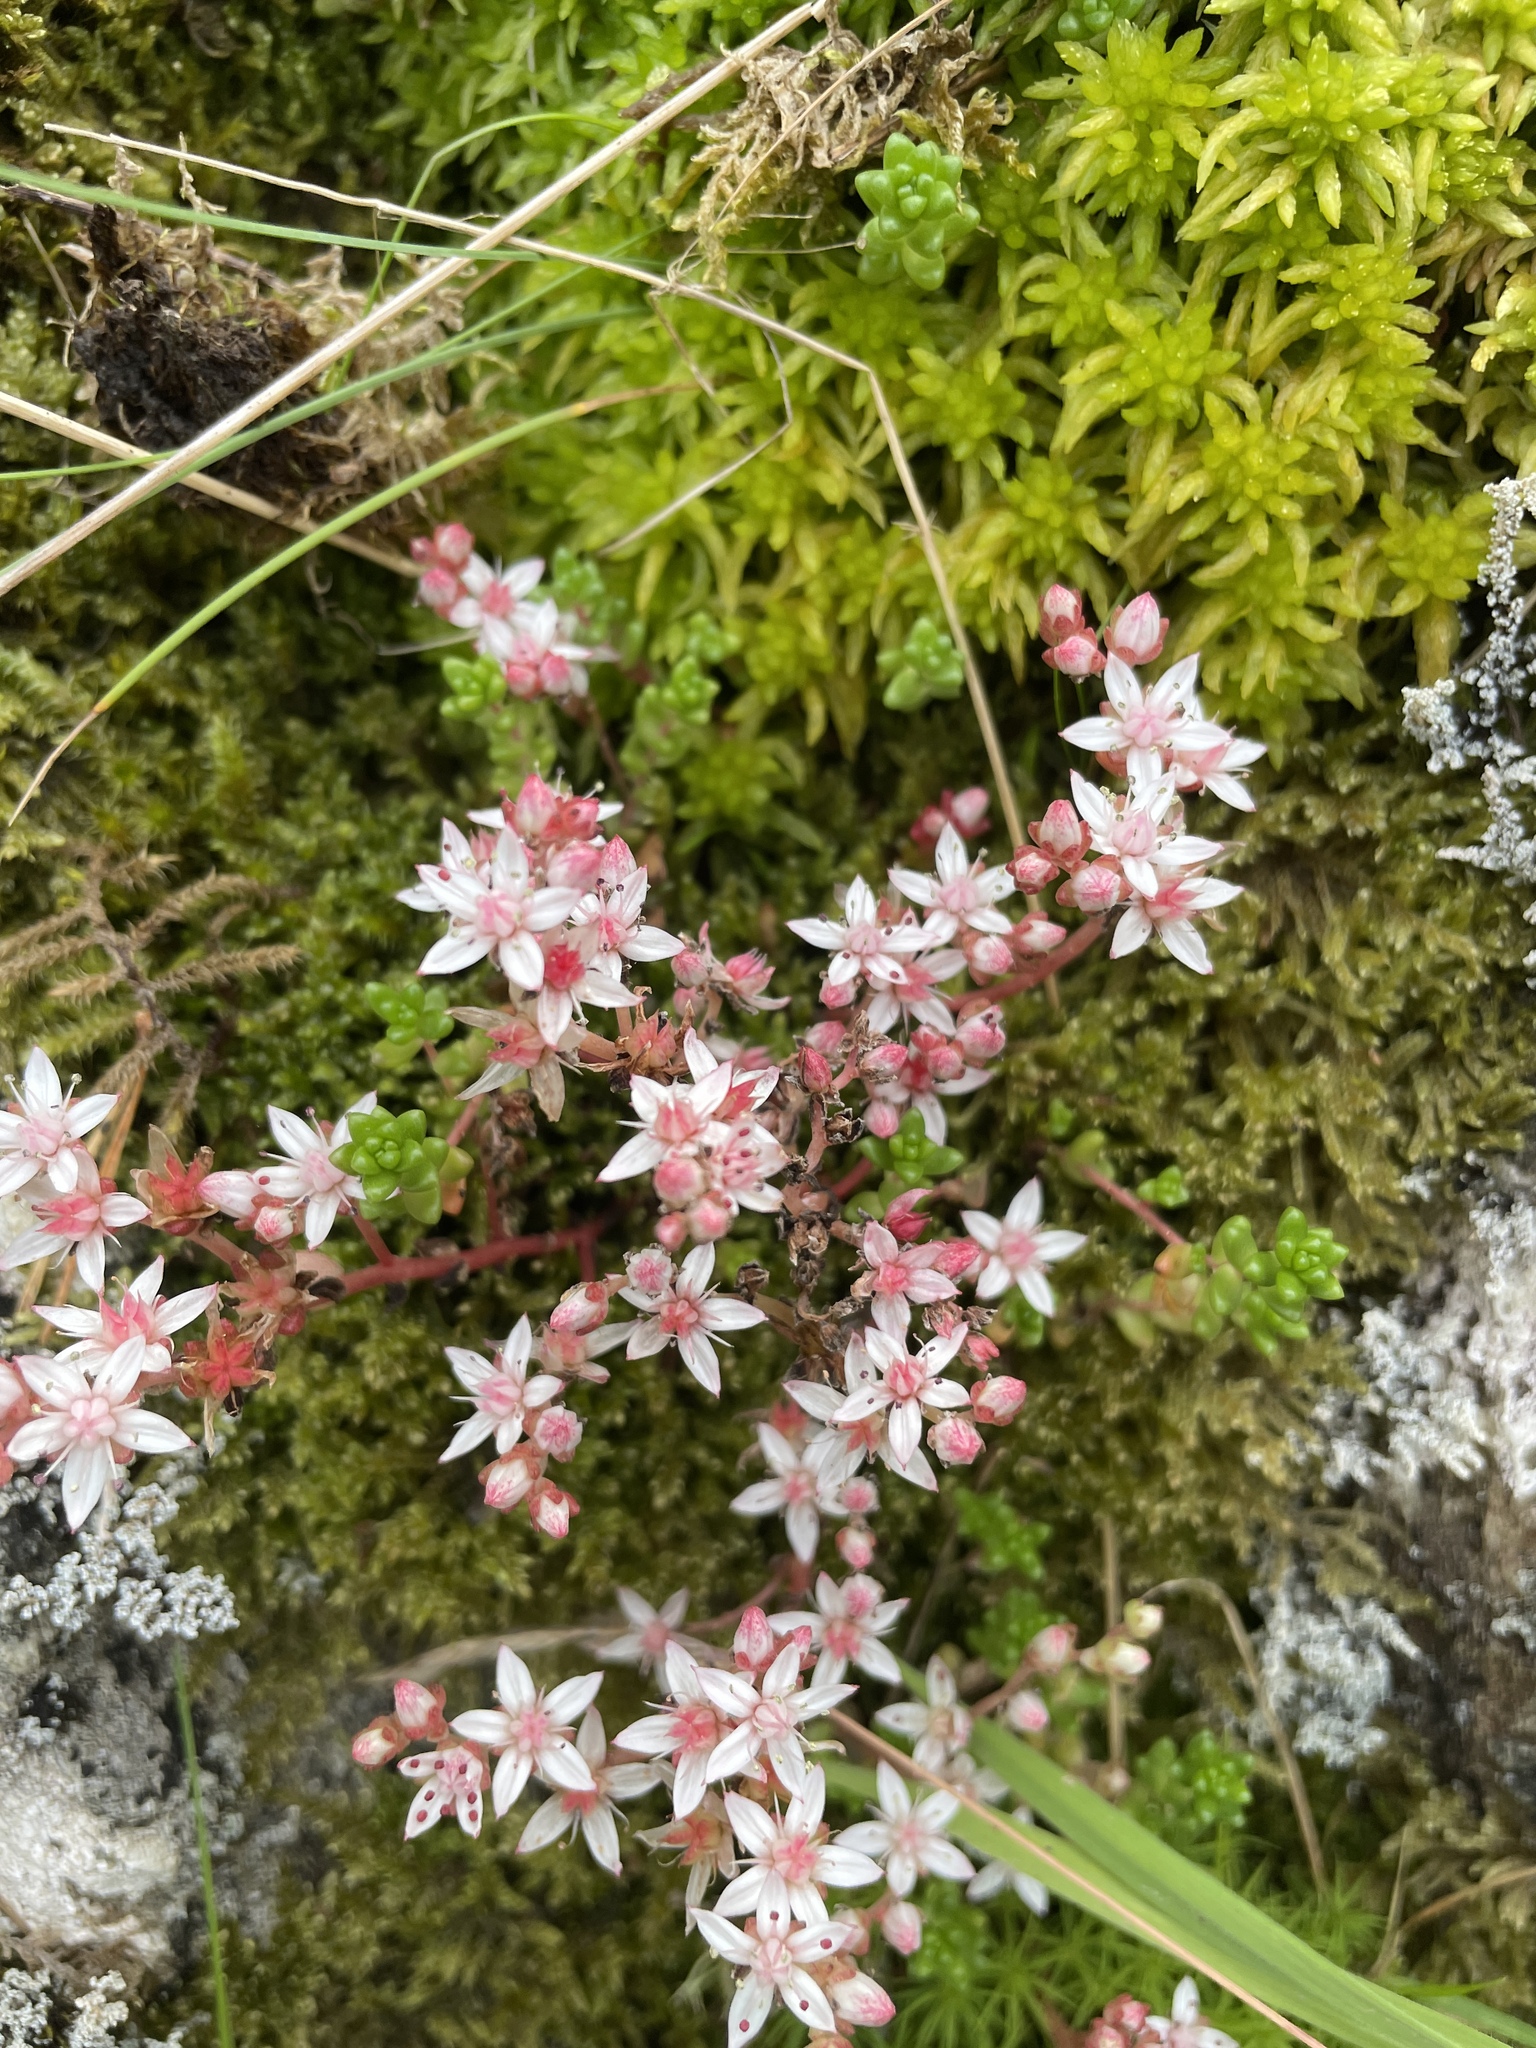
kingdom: Plantae
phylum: Tracheophyta
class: Magnoliopsida
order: Saxifragales
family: Crassulaceae
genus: Sedum
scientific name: Sedum anglicum
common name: English stonecrop
